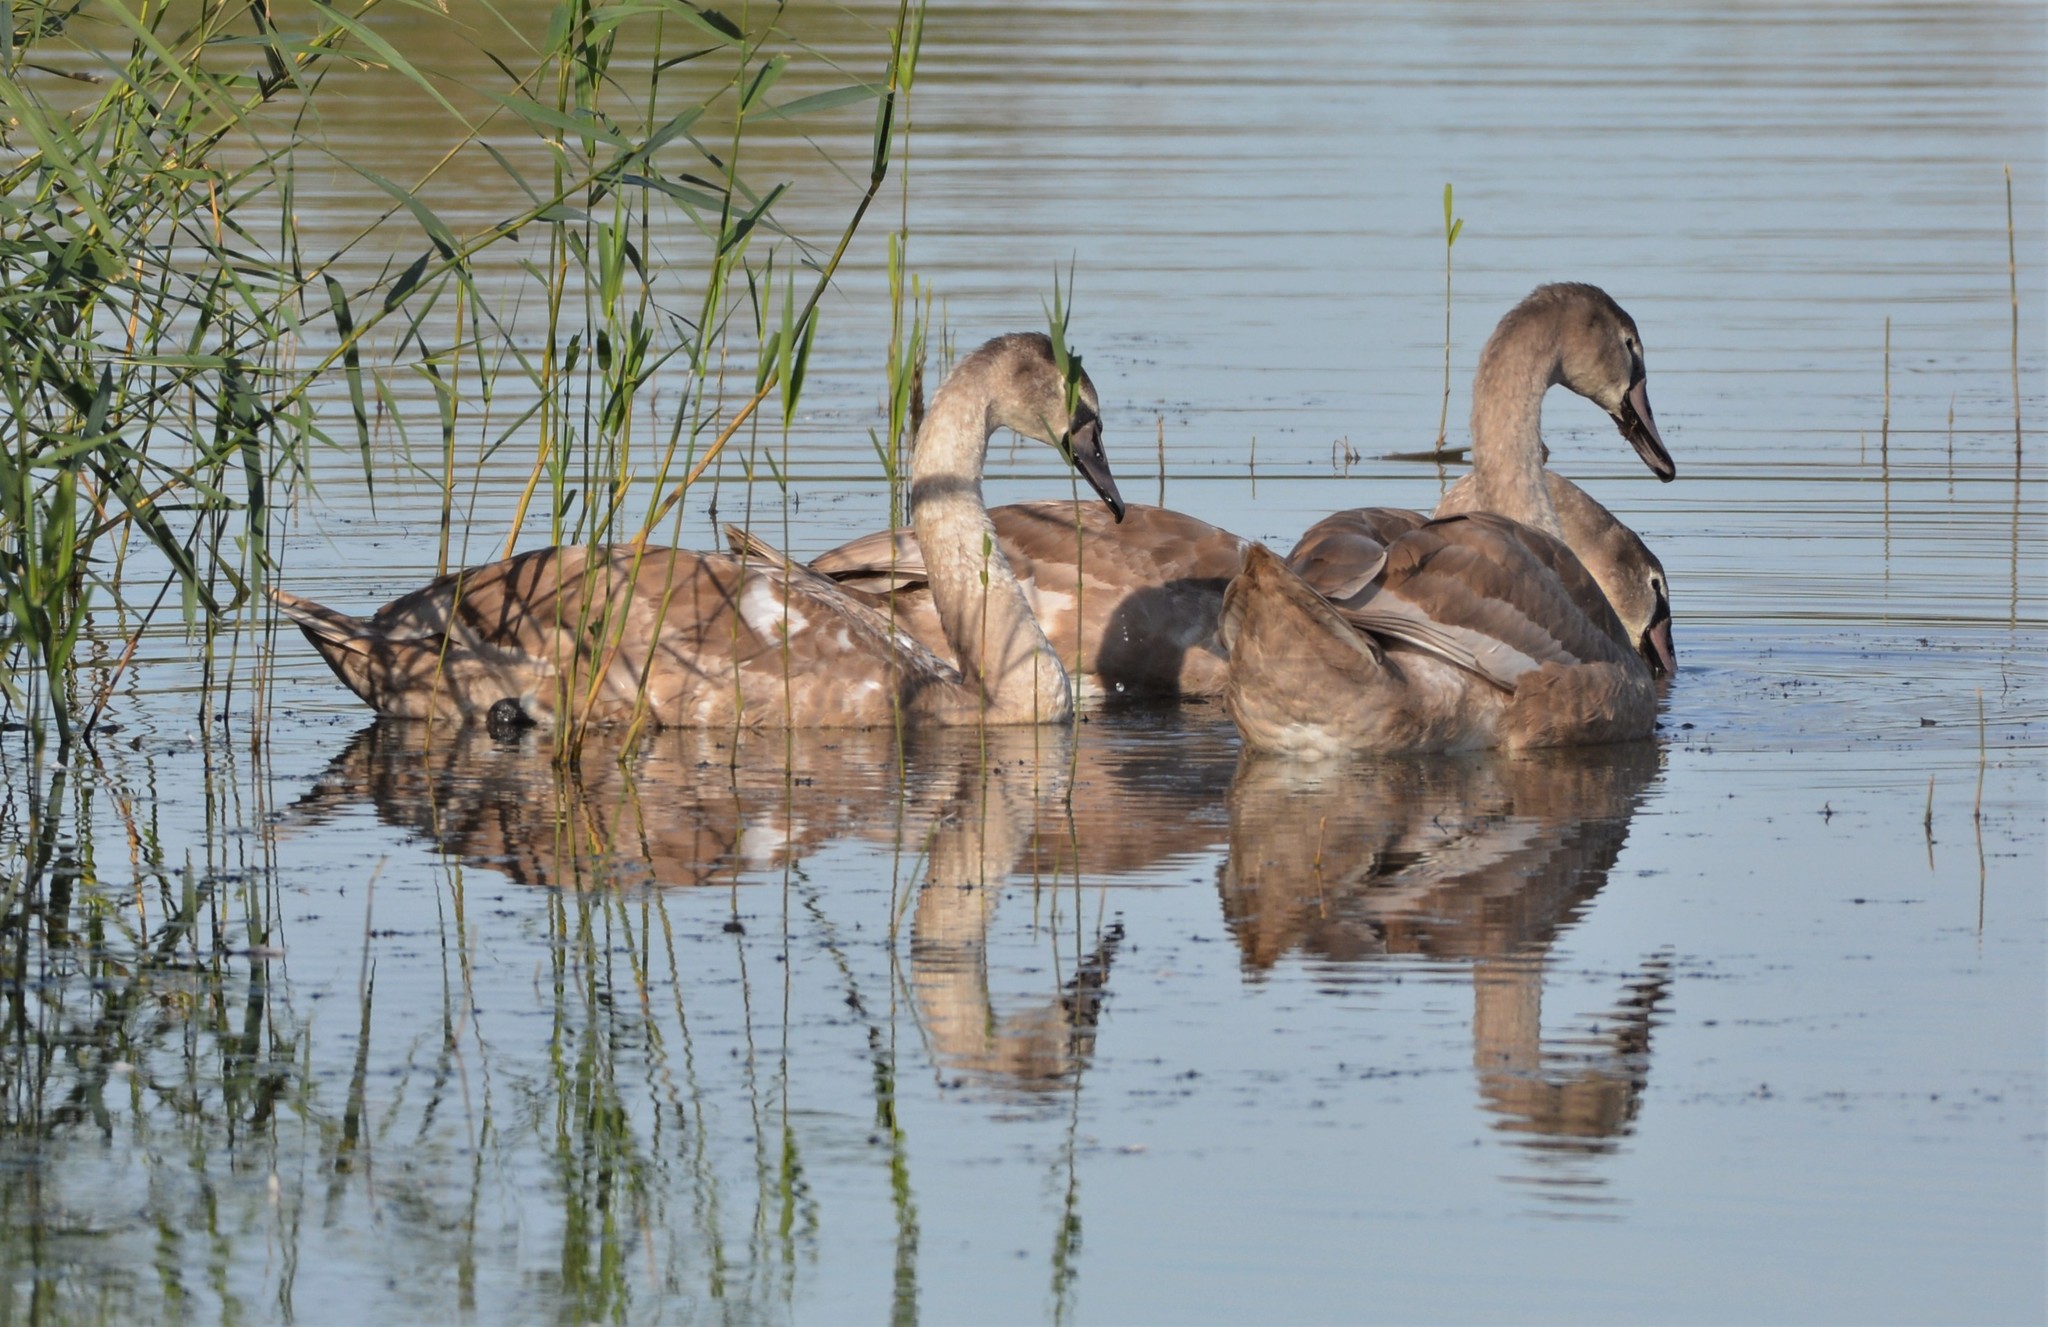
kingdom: Animalia
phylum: Chordata
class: Aves
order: Anseriformes
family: Anatidae
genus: Cygnus
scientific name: Cygnus olor
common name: Mute swan
